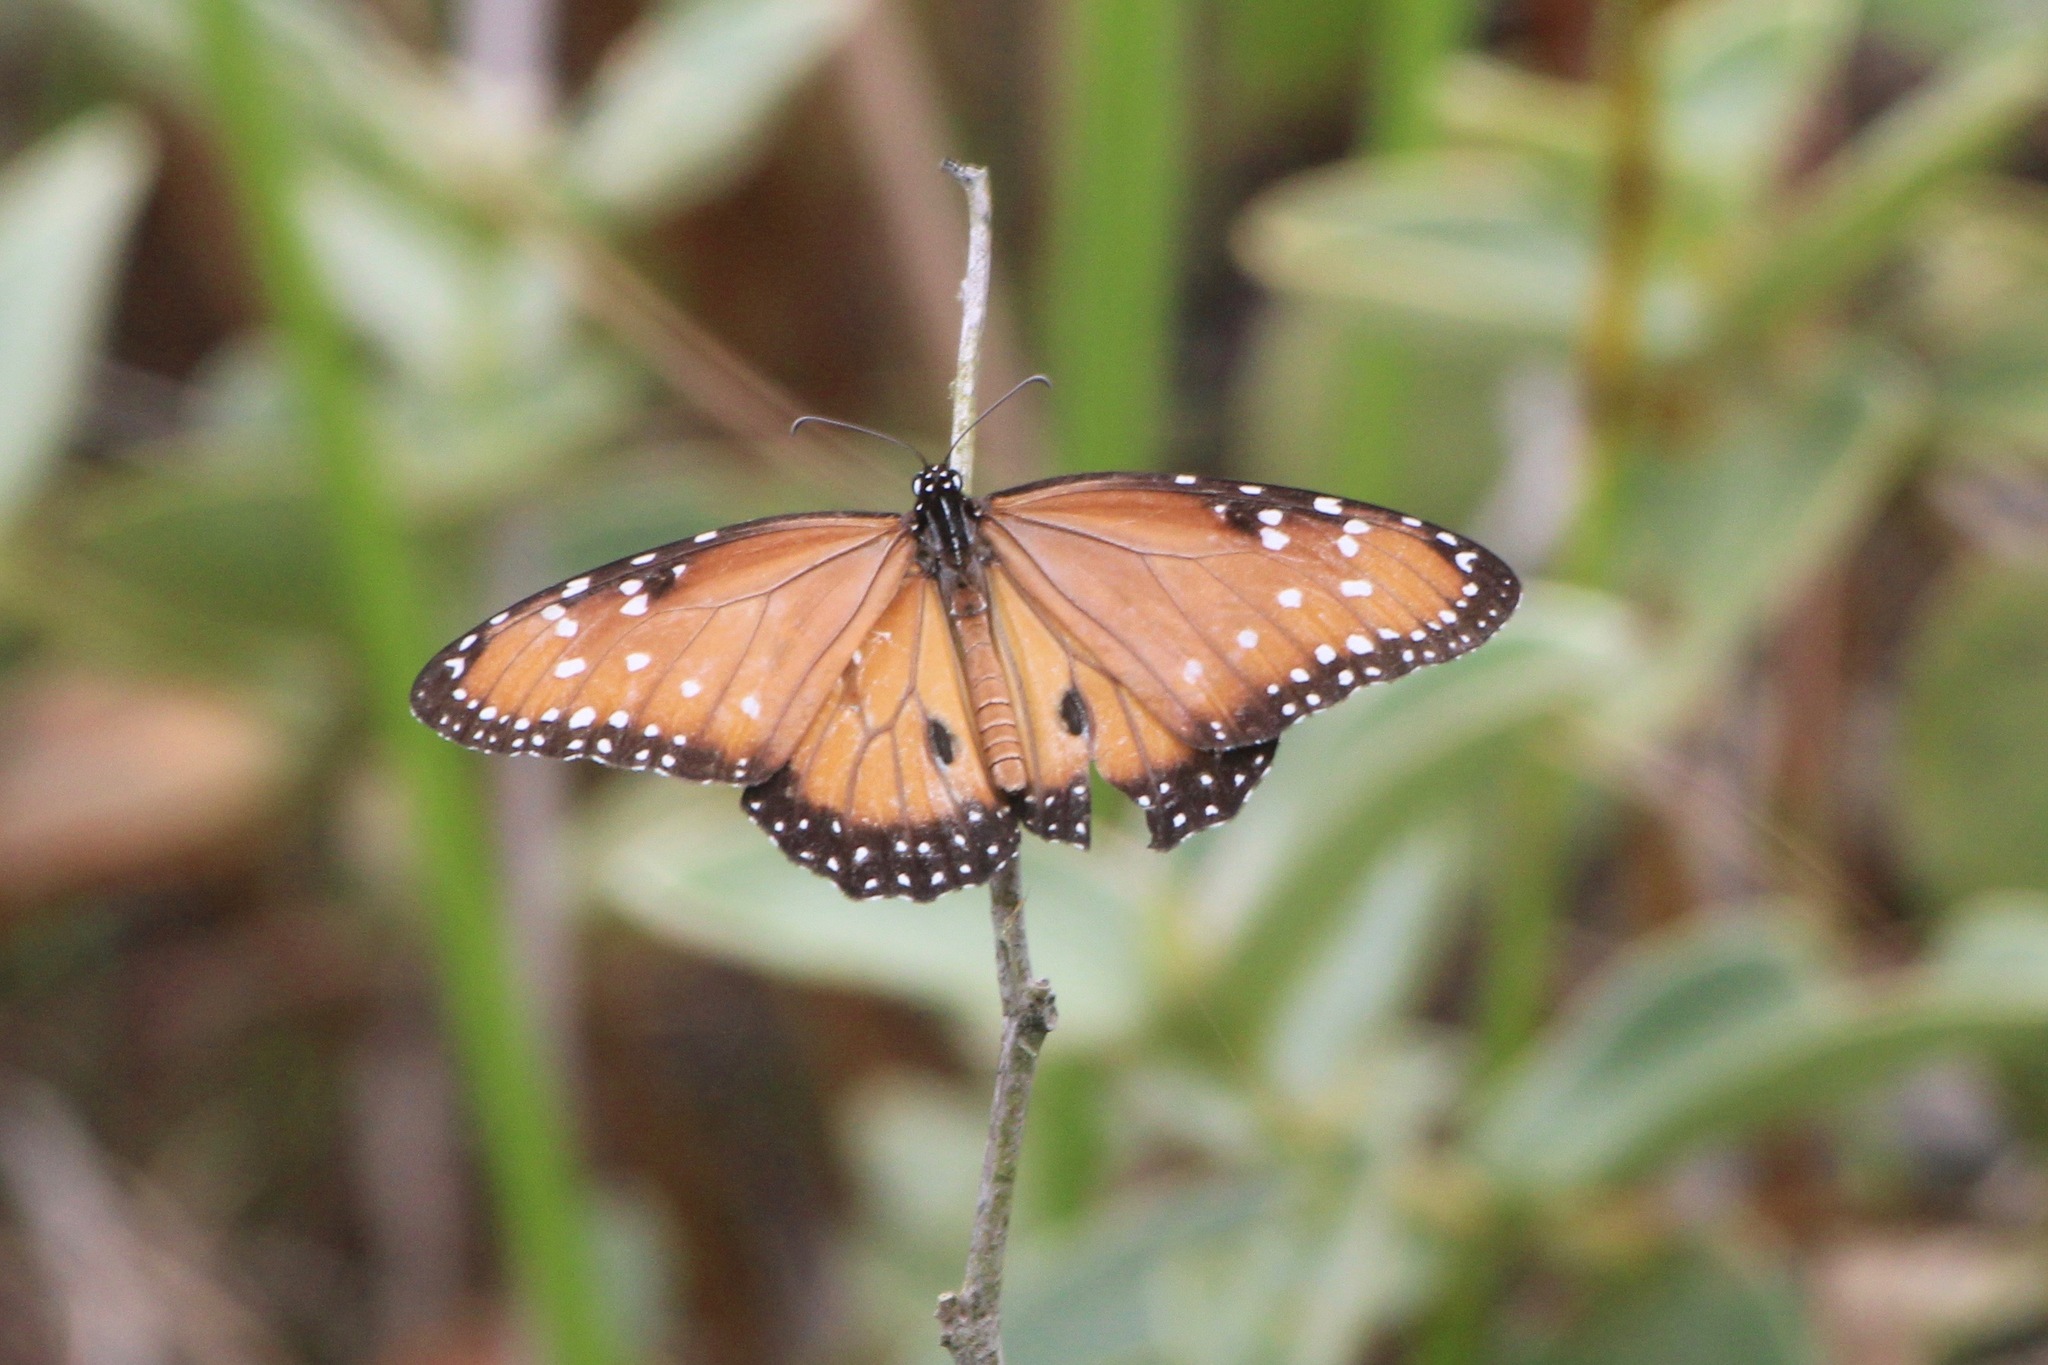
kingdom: Animalia
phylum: Arthropoda
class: Insecta
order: Lepidoptera
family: Nymphalidae
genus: Danaus
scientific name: Danaus gilippus
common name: Queen
